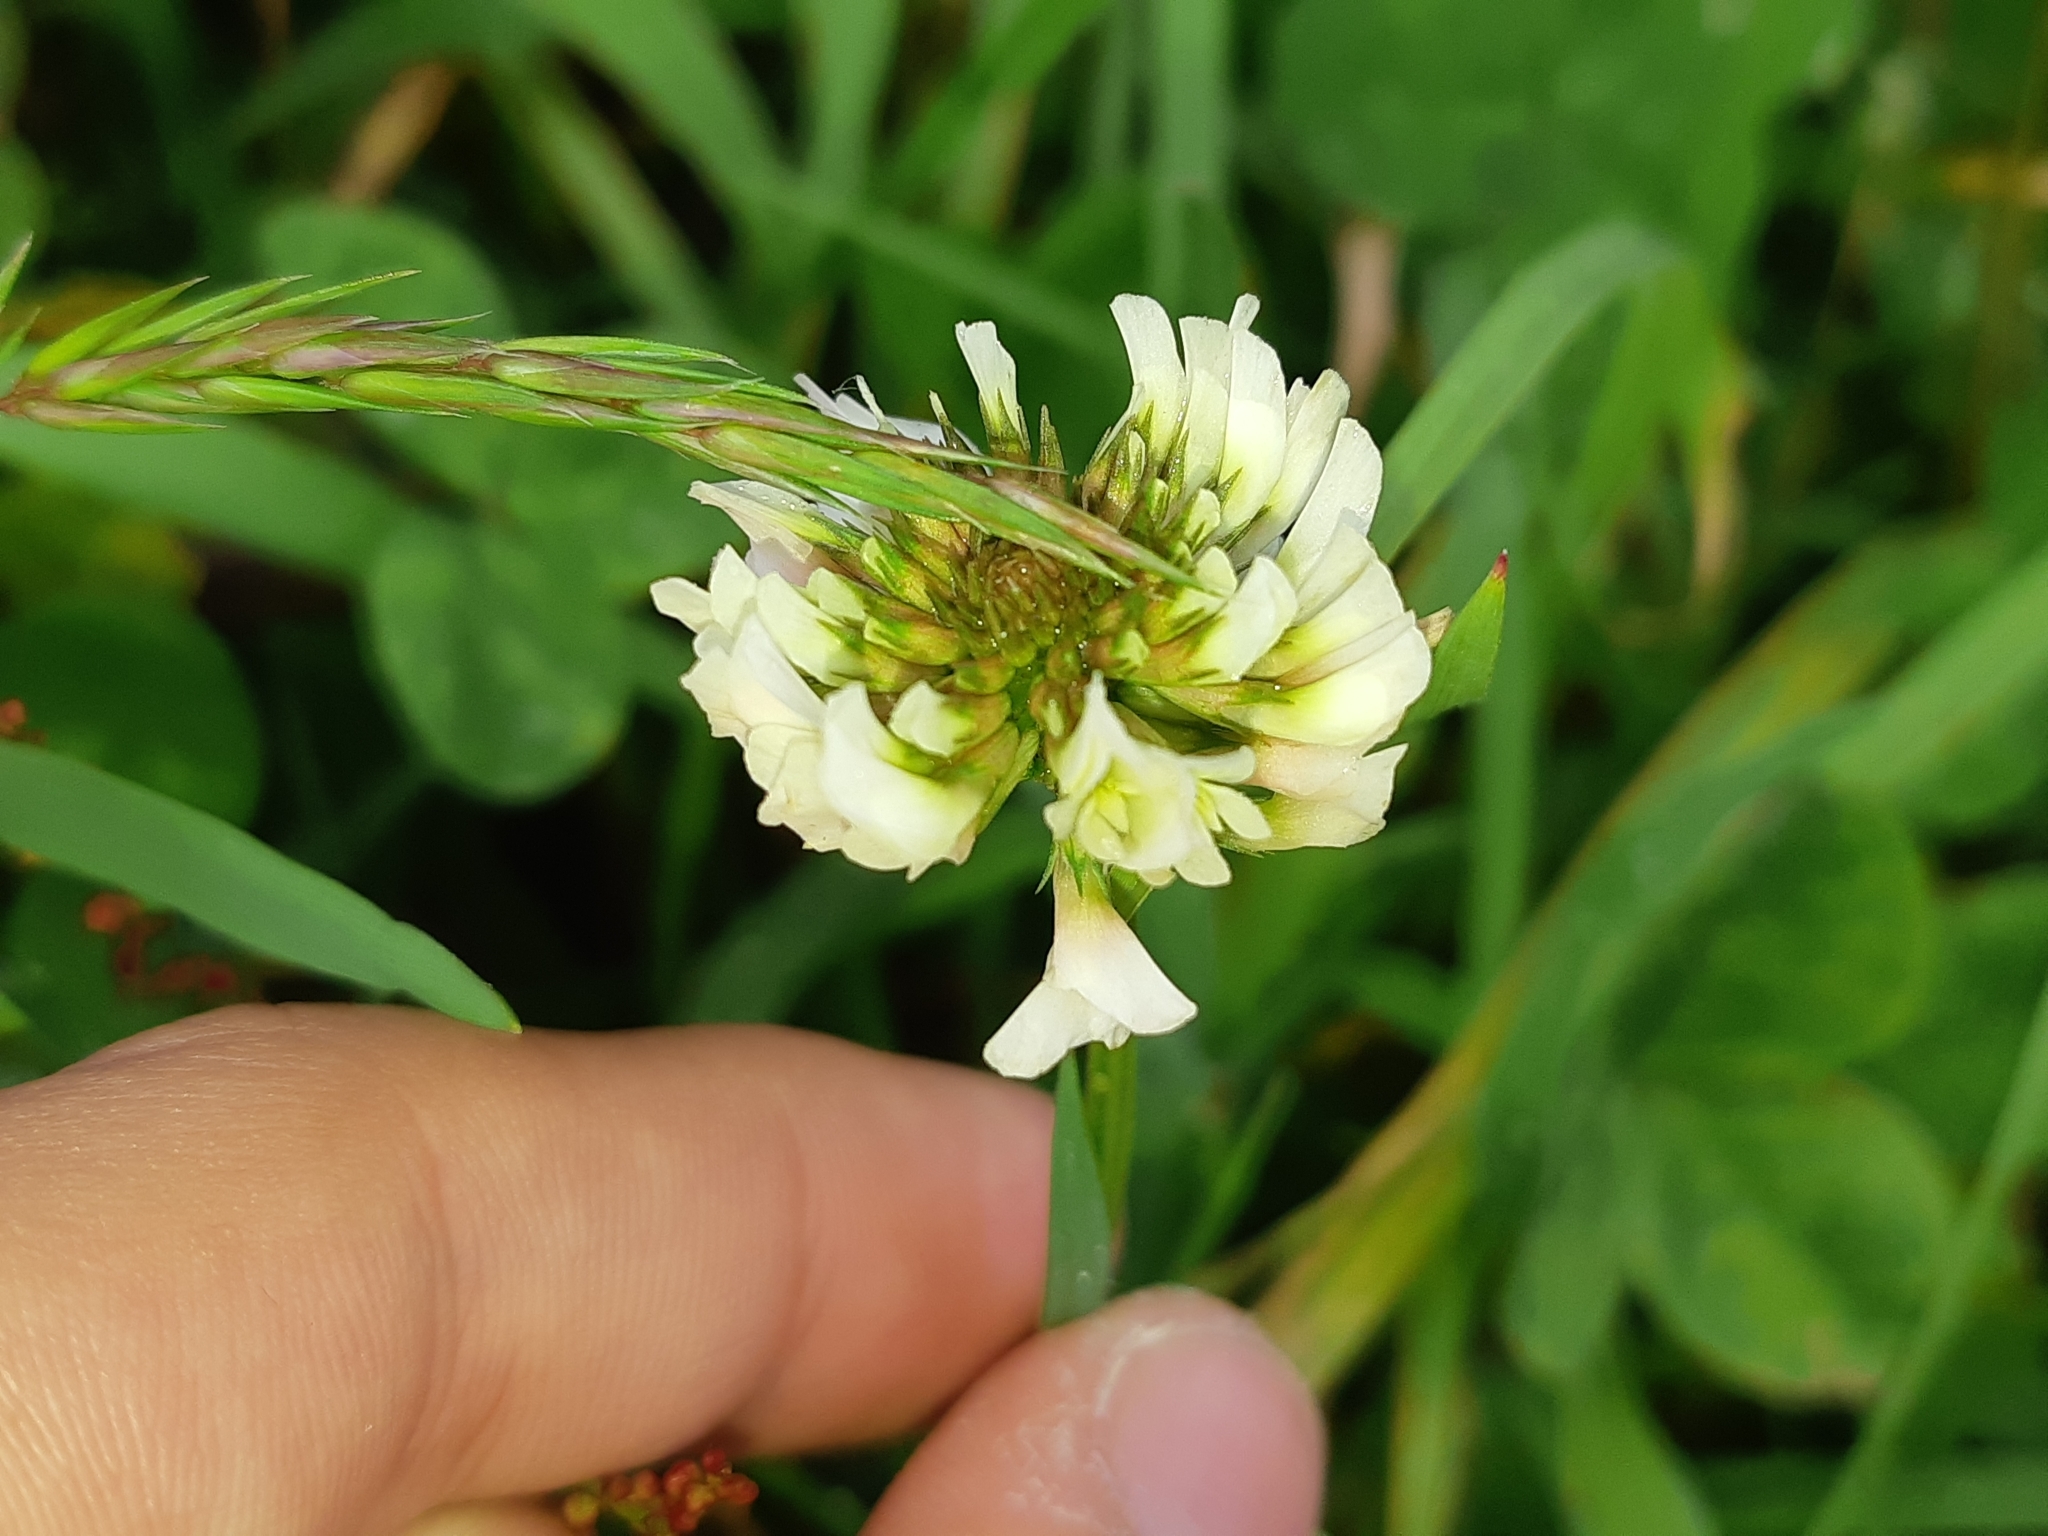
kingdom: Plantae
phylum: Tracheophyta
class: Magnoliopsida
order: Fabales
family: Fabaceae
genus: Trifolium
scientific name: Trifolium repens
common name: White clover
